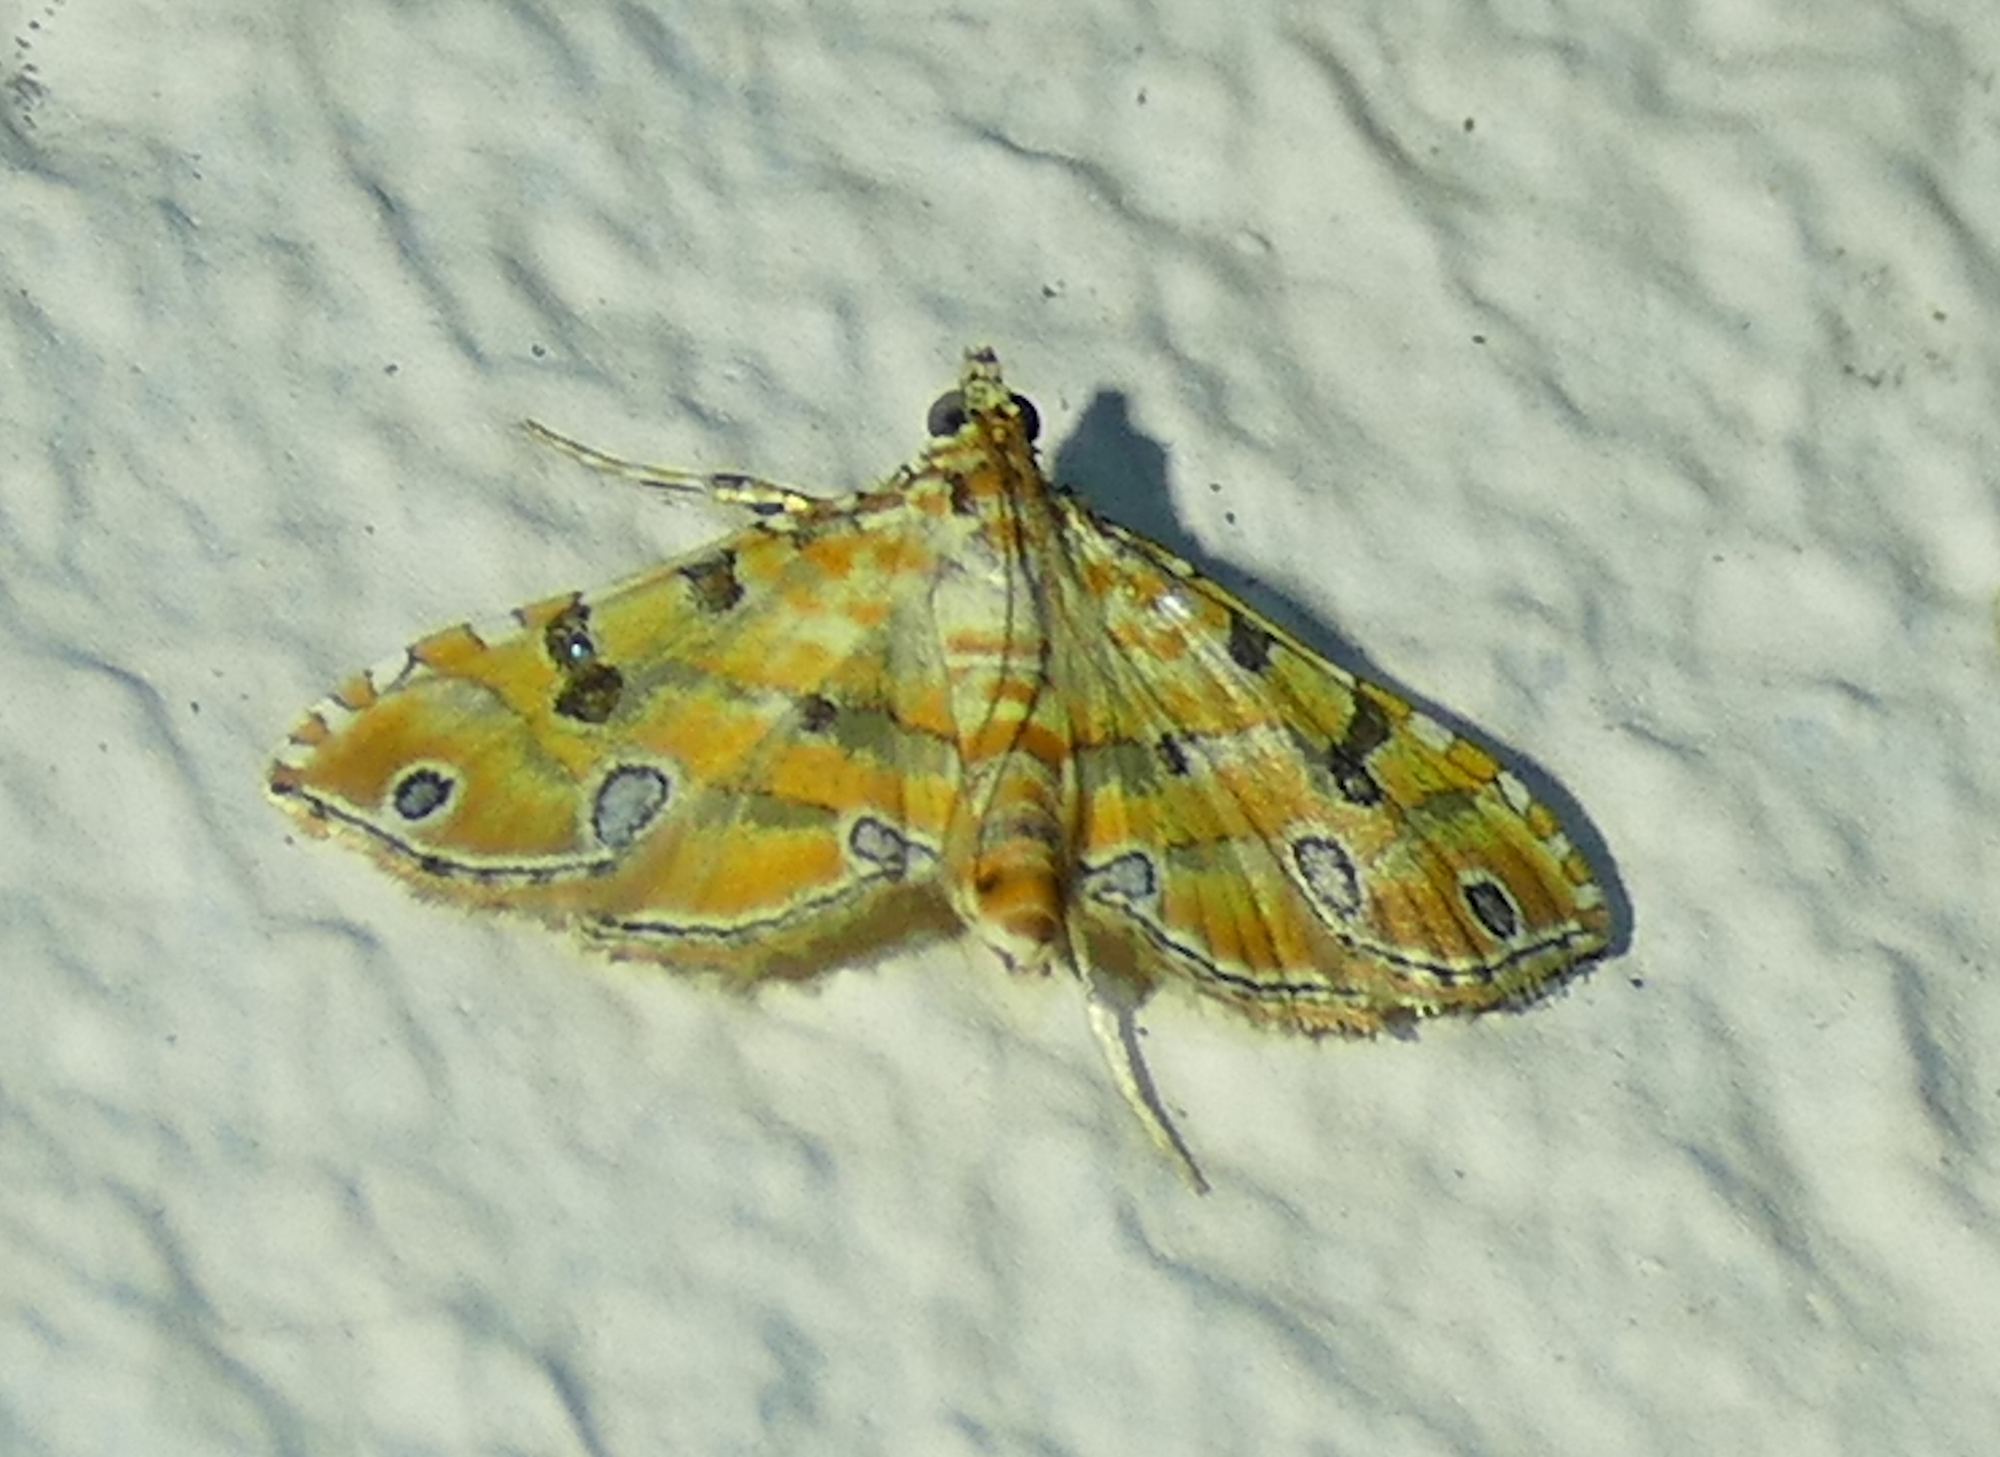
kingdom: Animalia
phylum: Arthropoda
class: Insecta
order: Lepidoptera
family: Crambidae
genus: Ommatospila
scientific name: Ommatospila narcaeusalis
